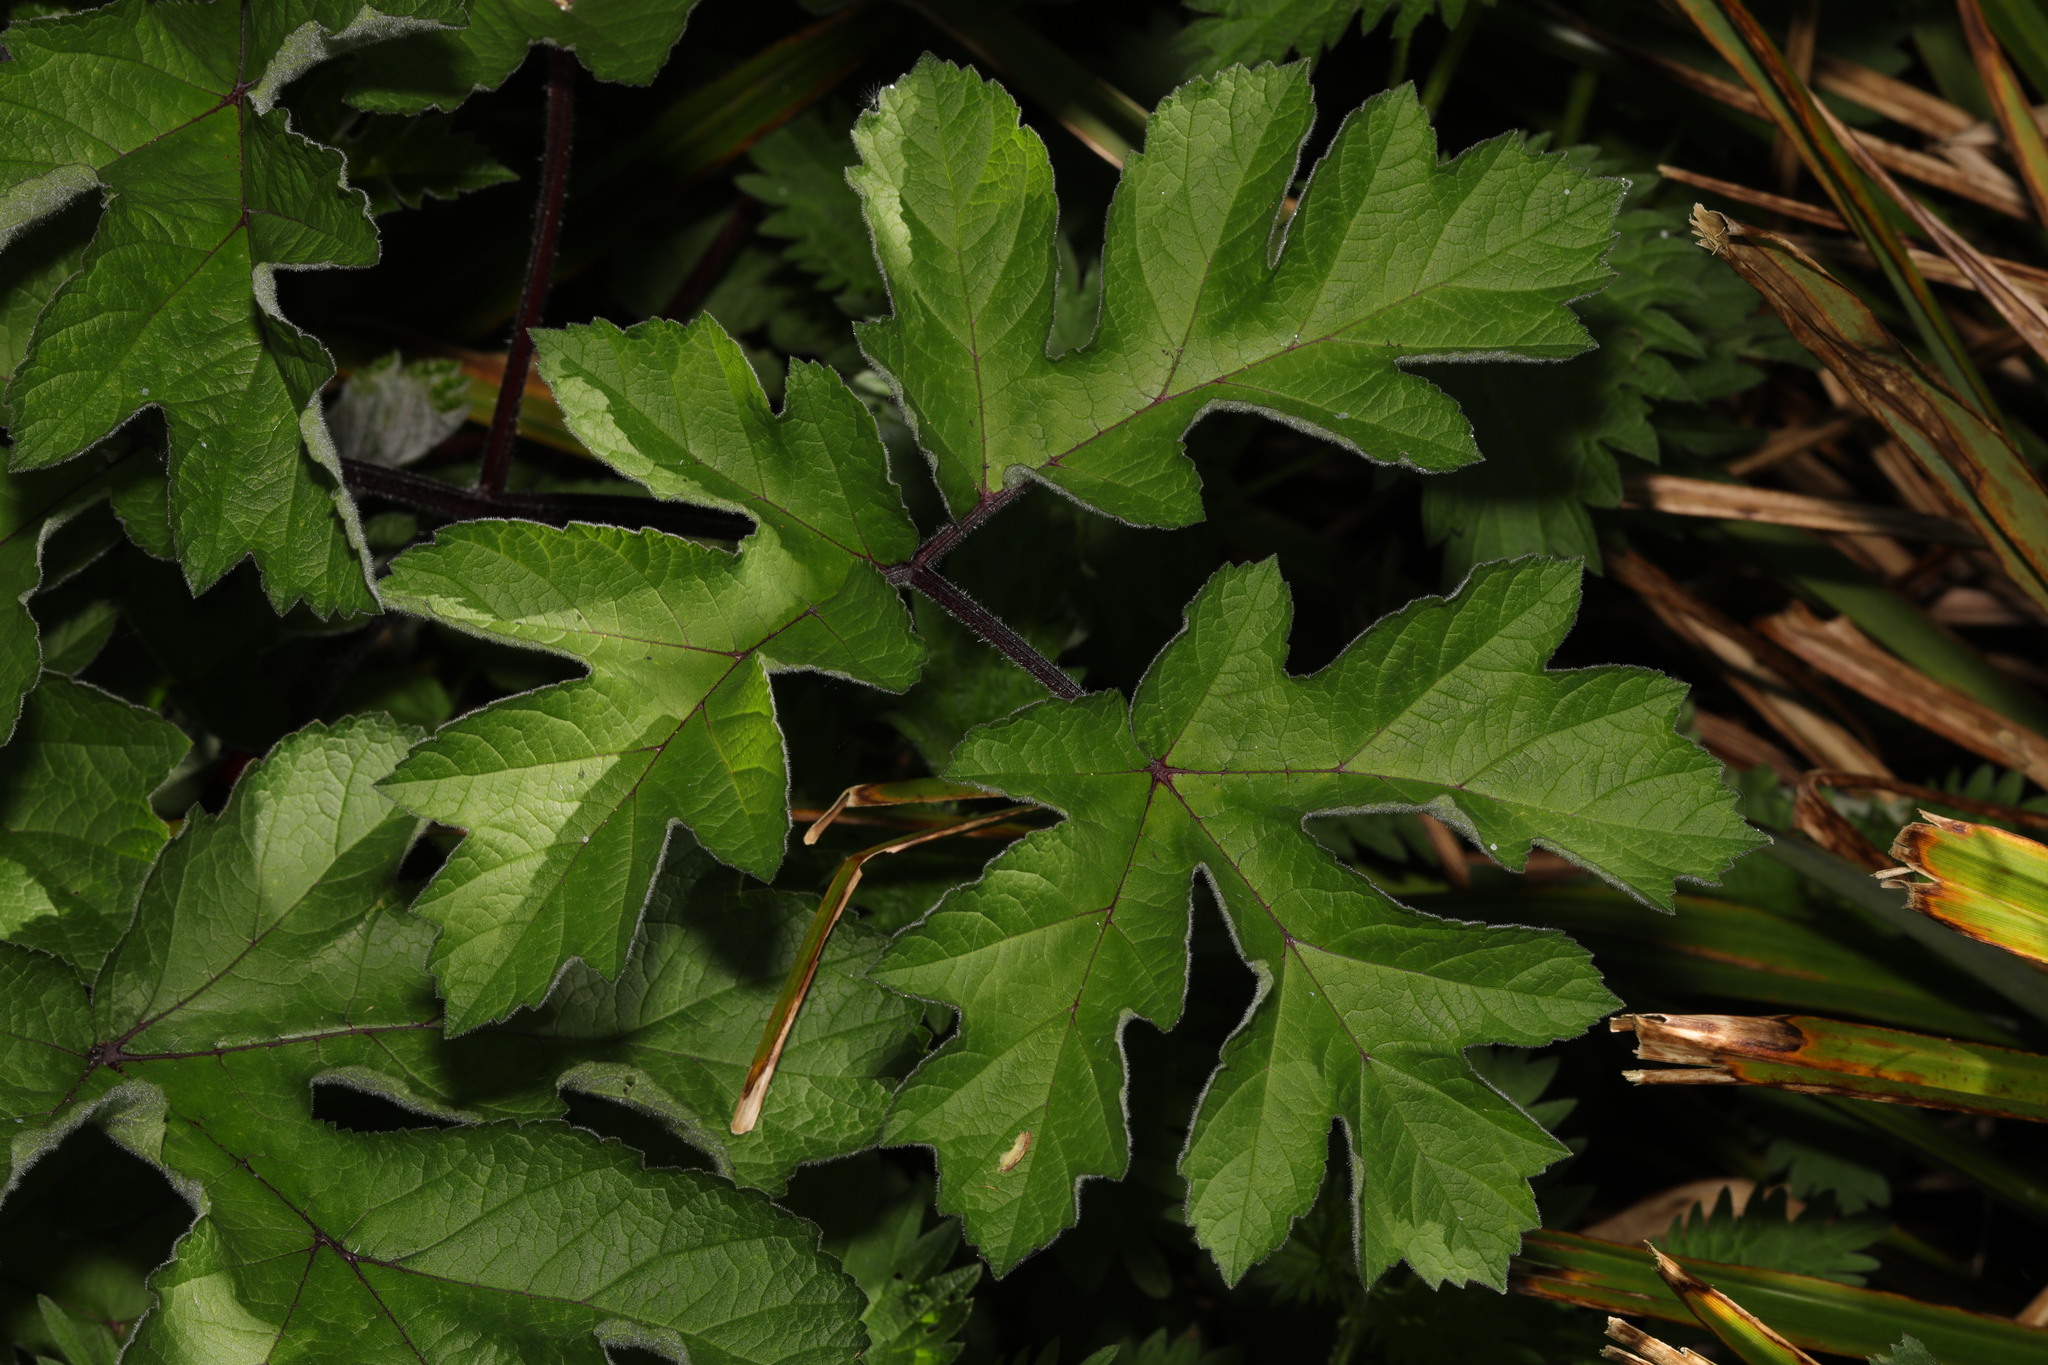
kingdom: Plantae
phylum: Tracheophyta
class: Magnoliopsida
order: Apiales
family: Apiaceae
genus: Heracleum
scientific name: Heracleum sphondylium
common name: Hogweed
